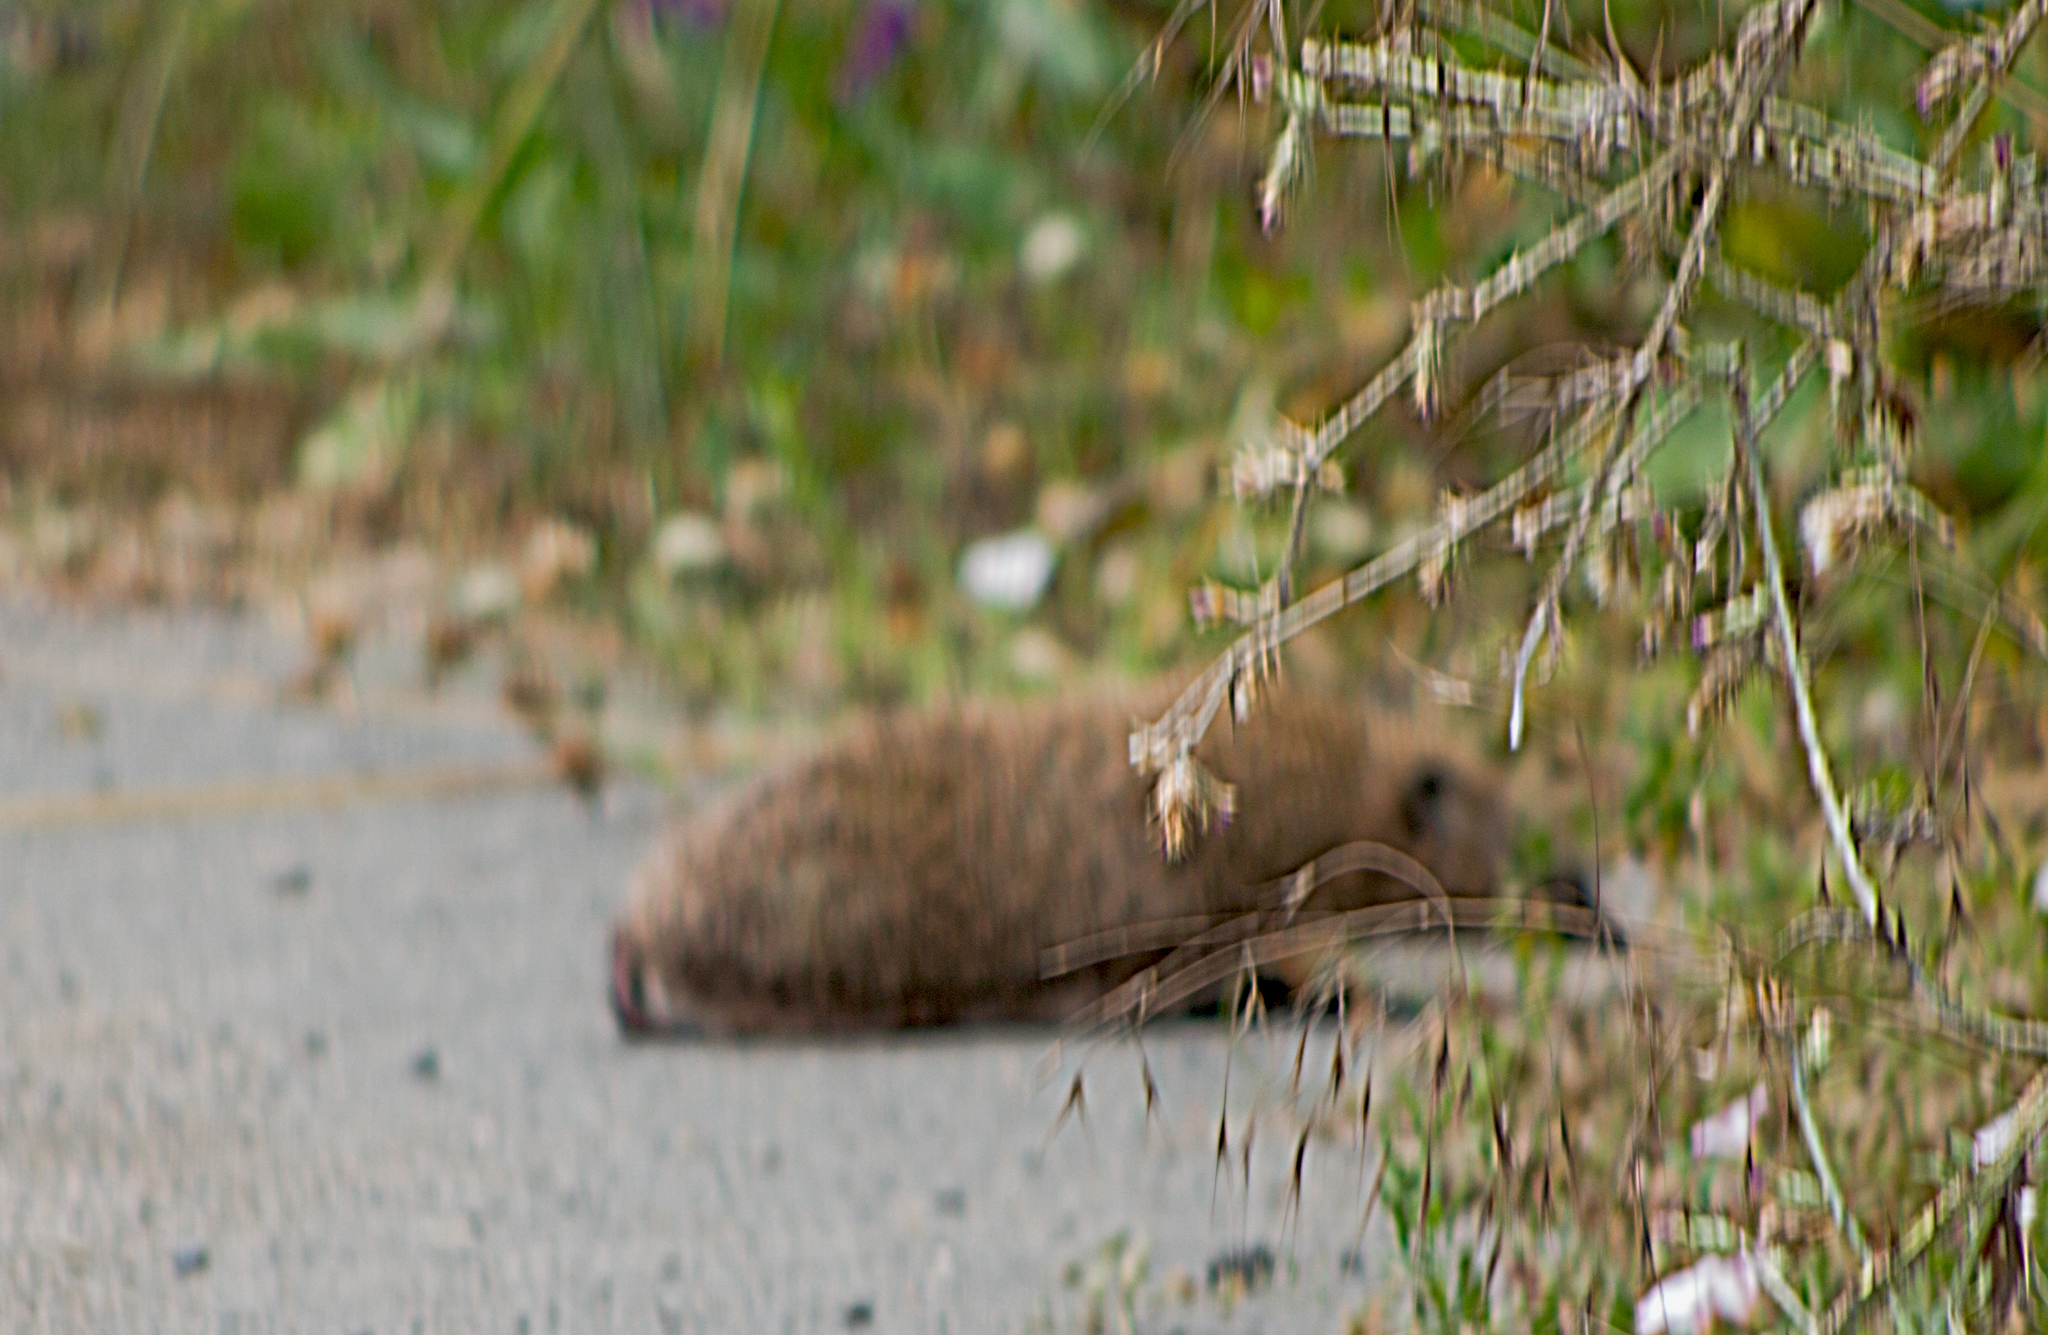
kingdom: Animalia
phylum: Chordata
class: Mammalia
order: Erinaceomorpha
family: Erinaceidae
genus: Erinaceus
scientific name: Erinaceus roumanicus
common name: Northern white-breasted hedgehog
